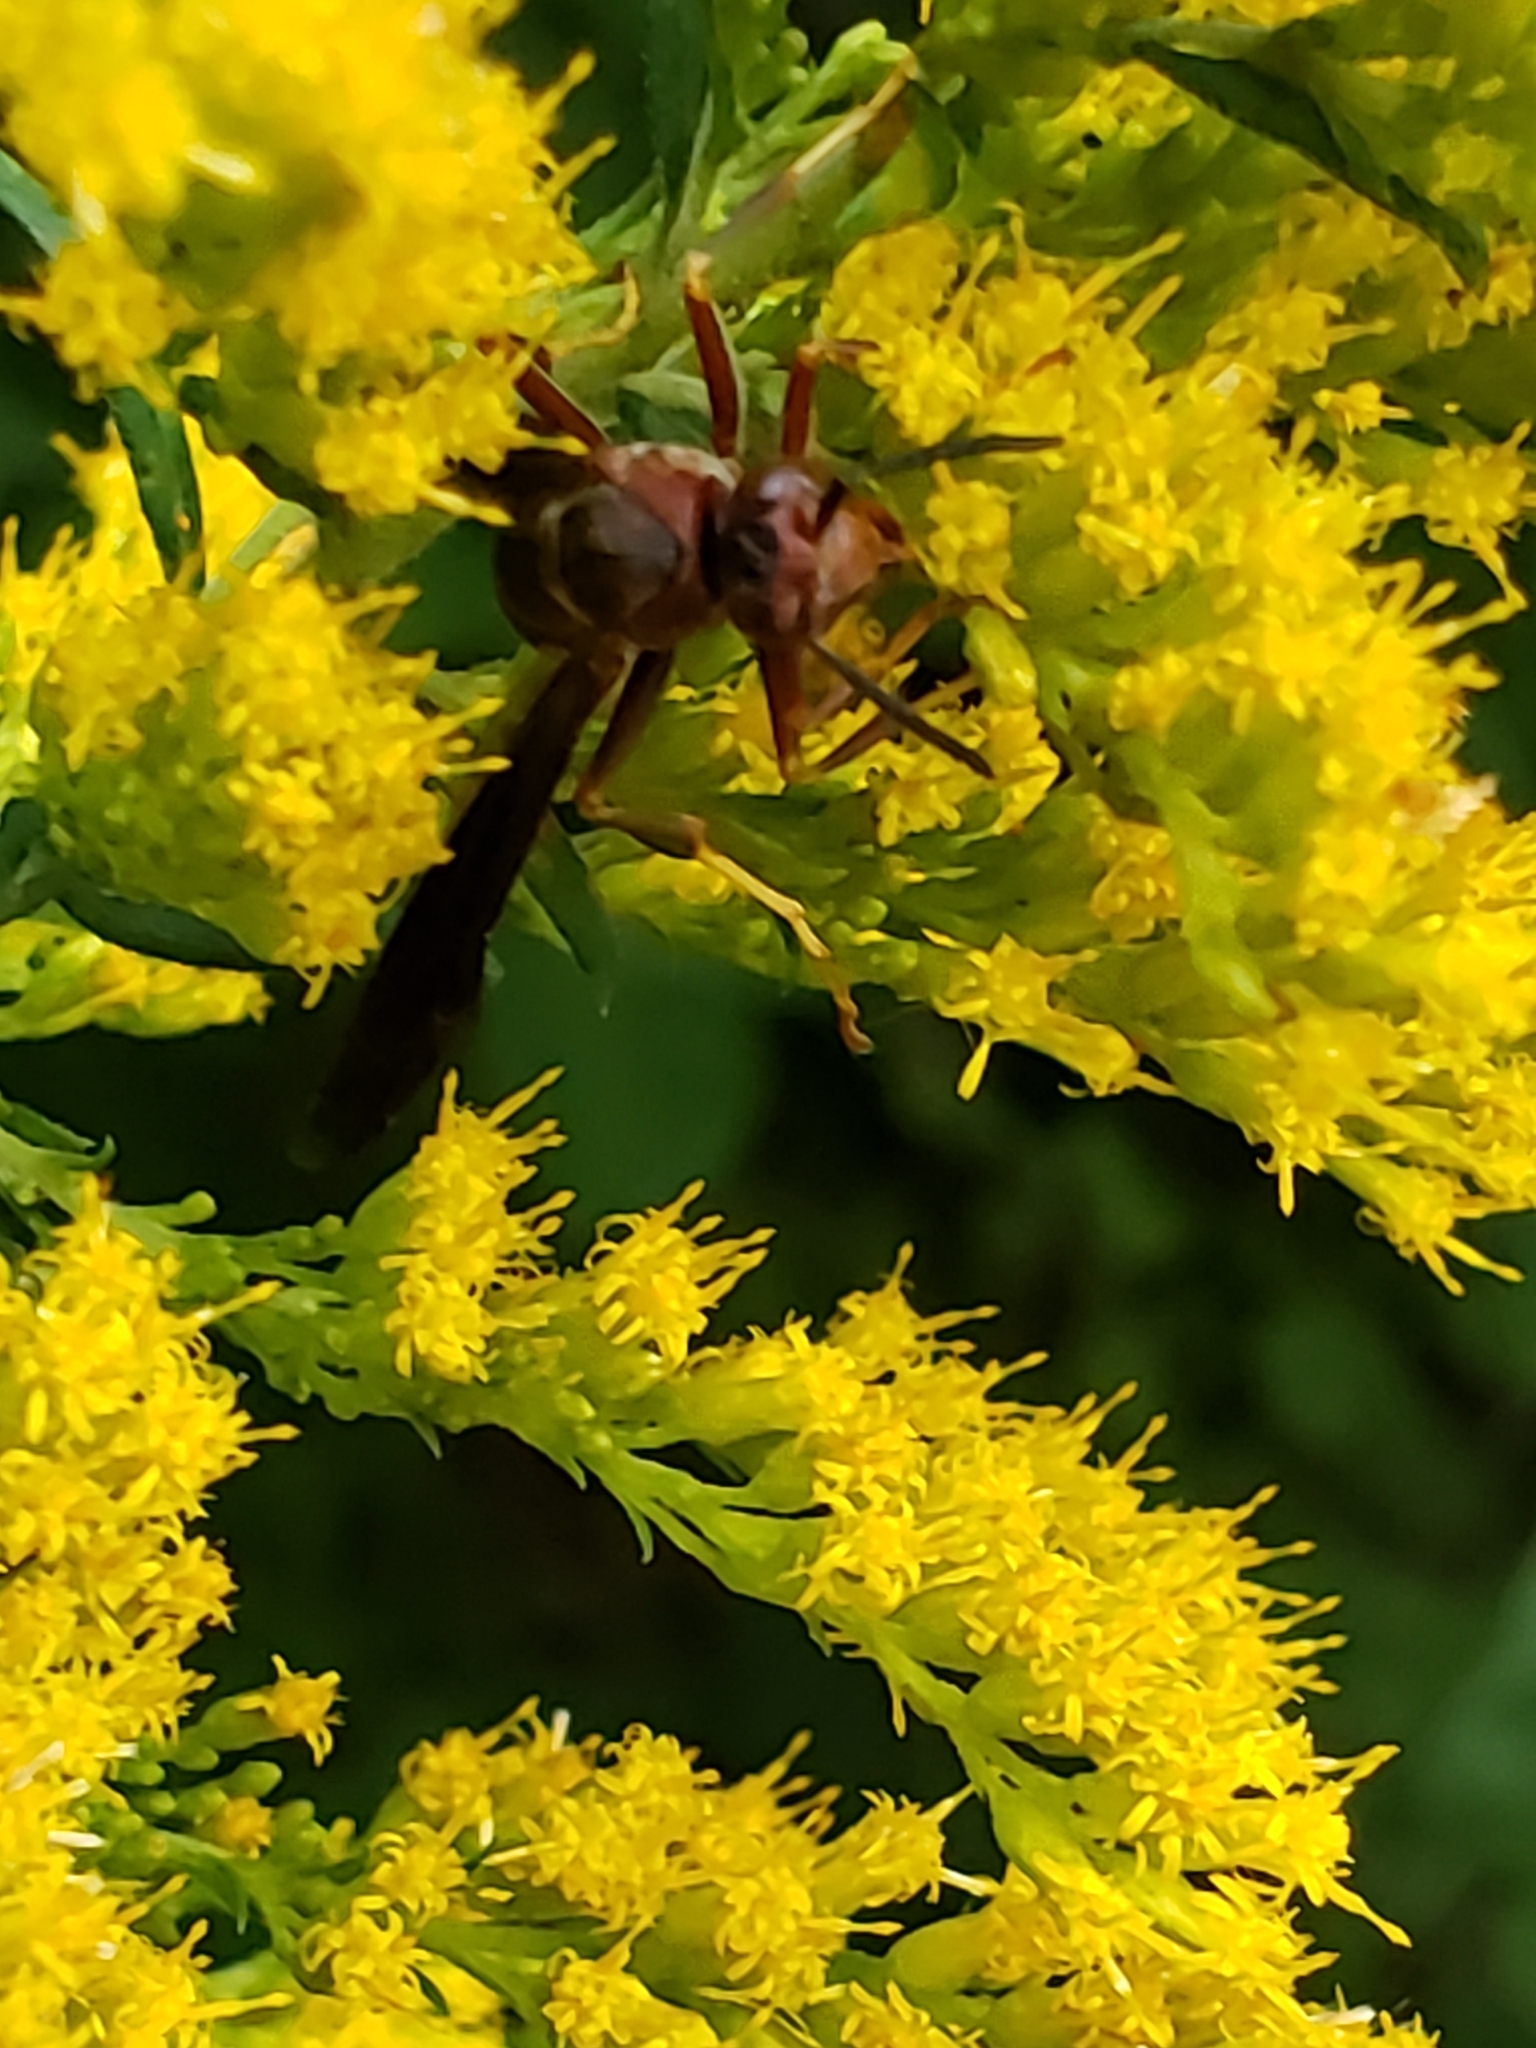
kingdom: Animalia
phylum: Arthropoda
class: Insecta
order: Hymenoptera
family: Eumenidae
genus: Polistes
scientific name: Polistes metricus
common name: Metric paper wasp
